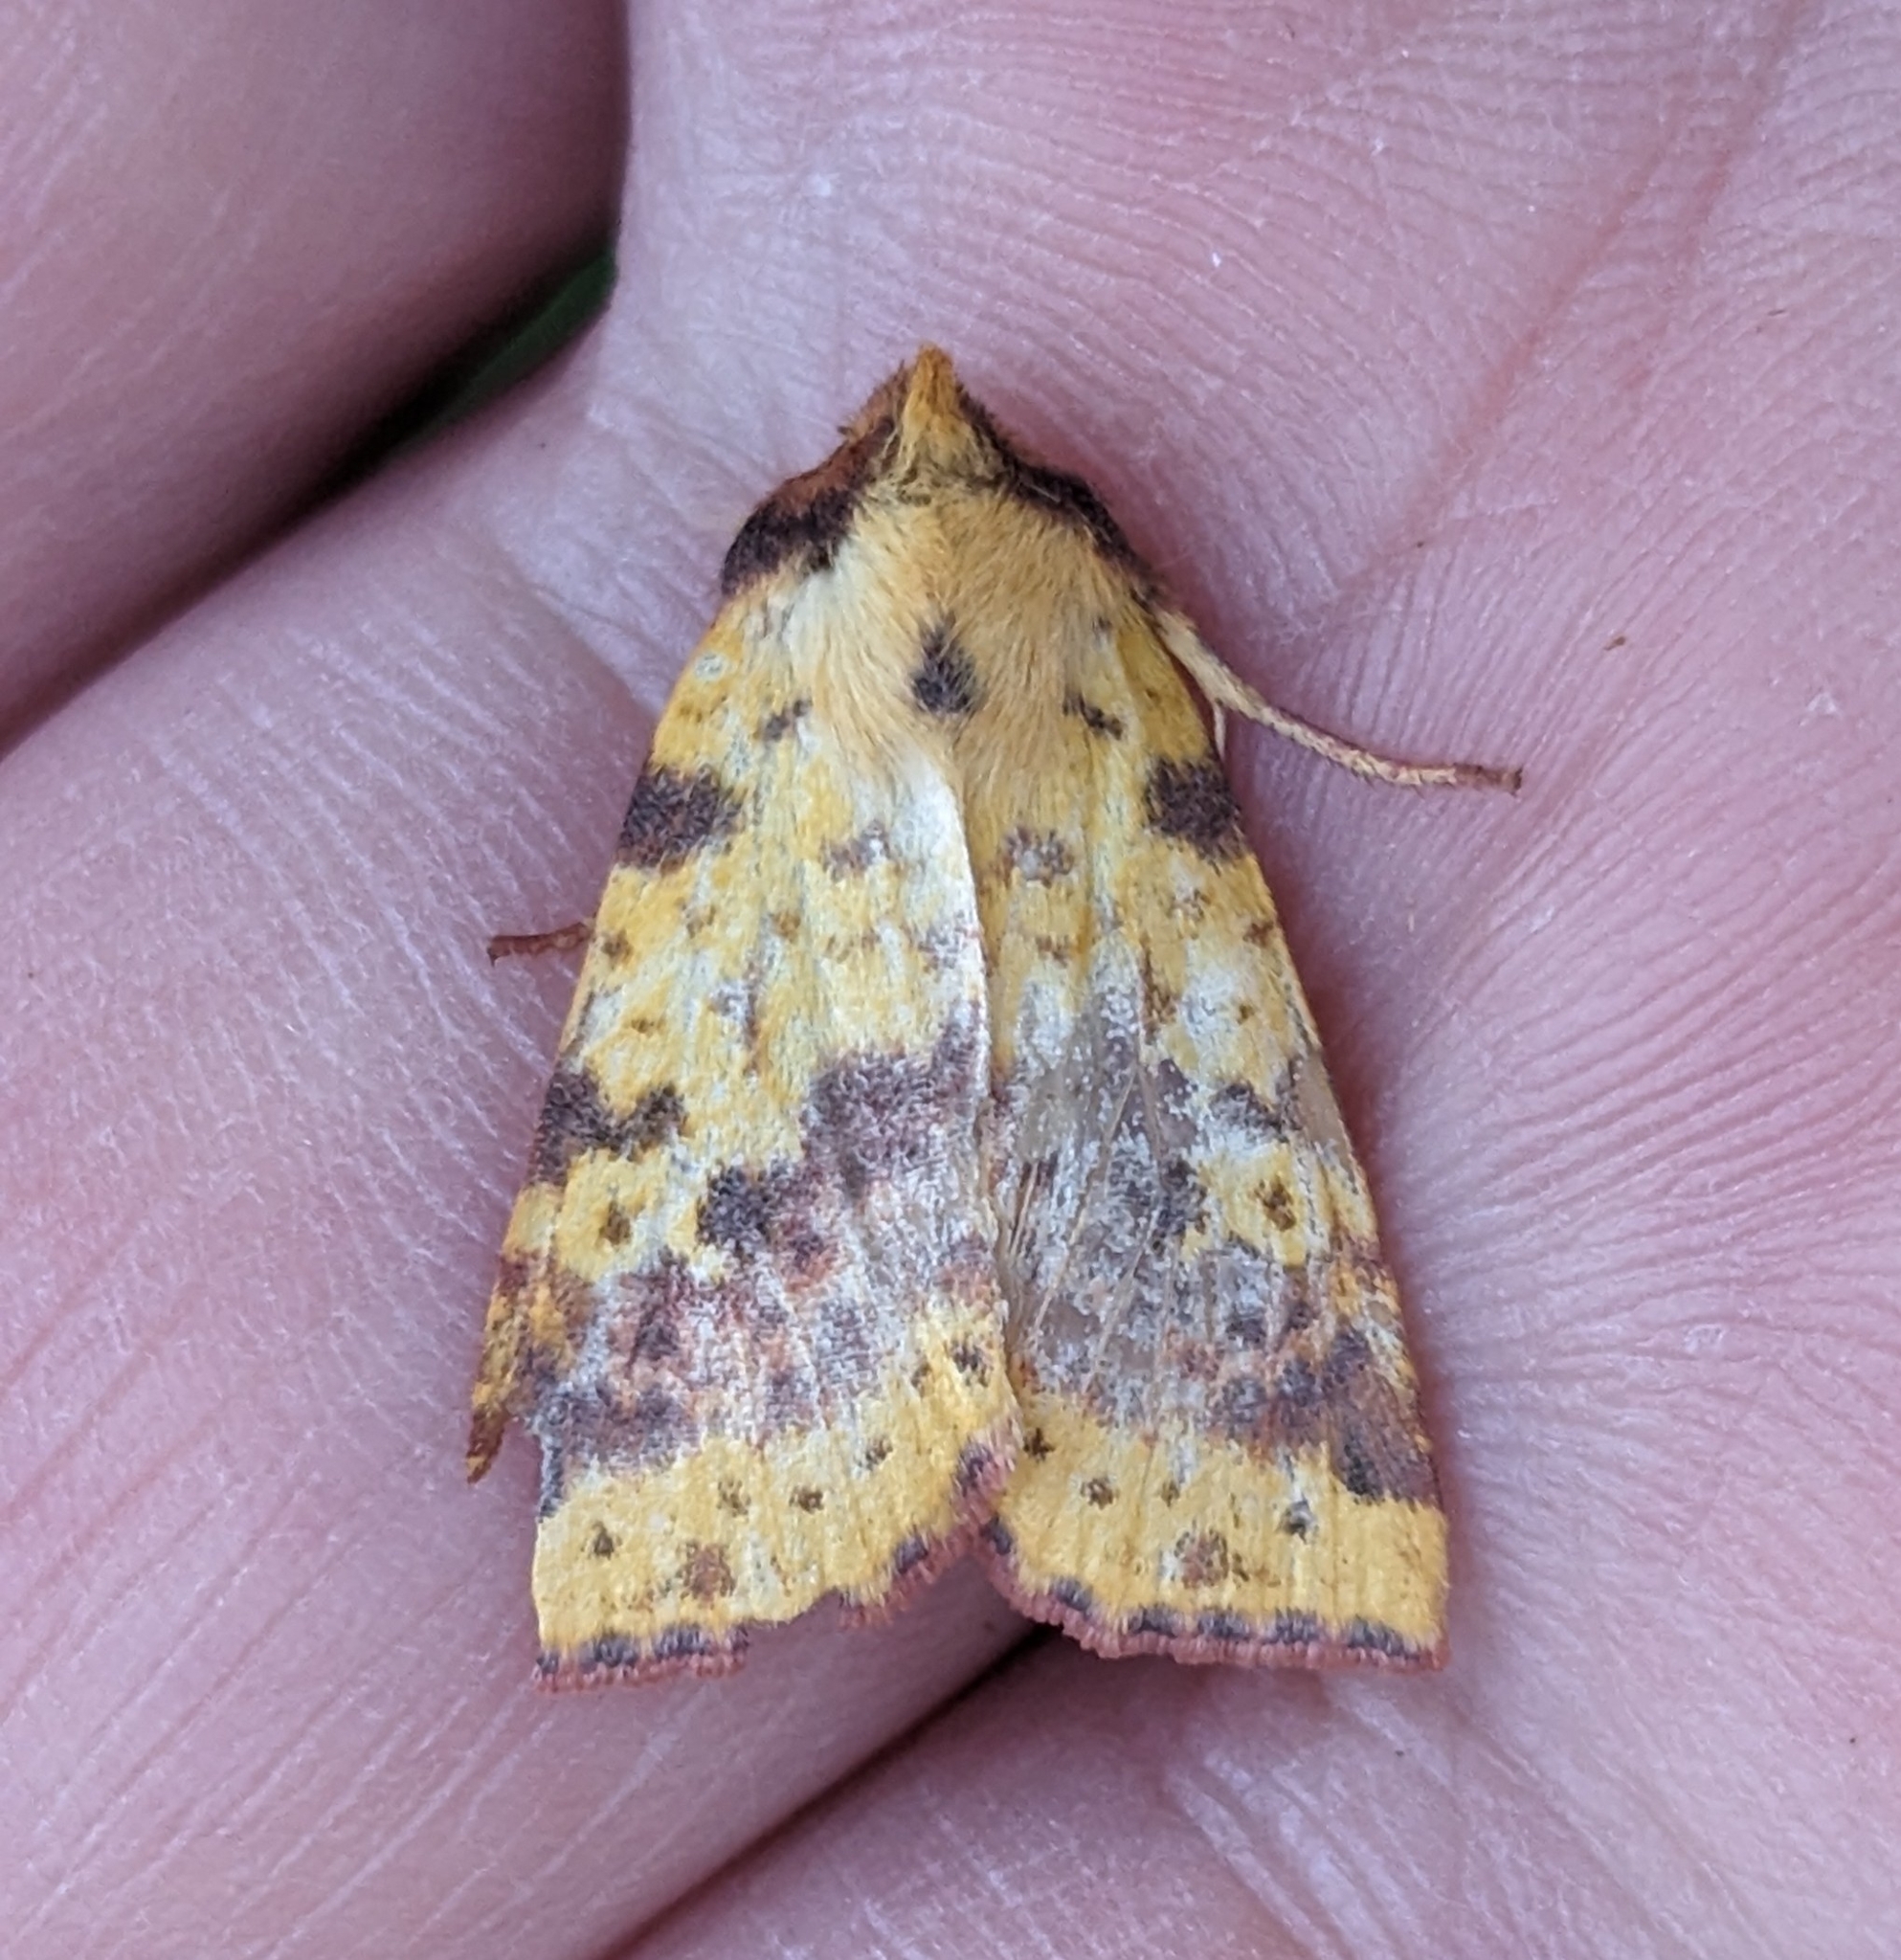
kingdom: Animalia
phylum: Arthropoda
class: Insecta
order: Lepidoptera
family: Noctuidae
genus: Xanthia
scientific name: Xanthia tatago
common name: Pink-banded sallow
